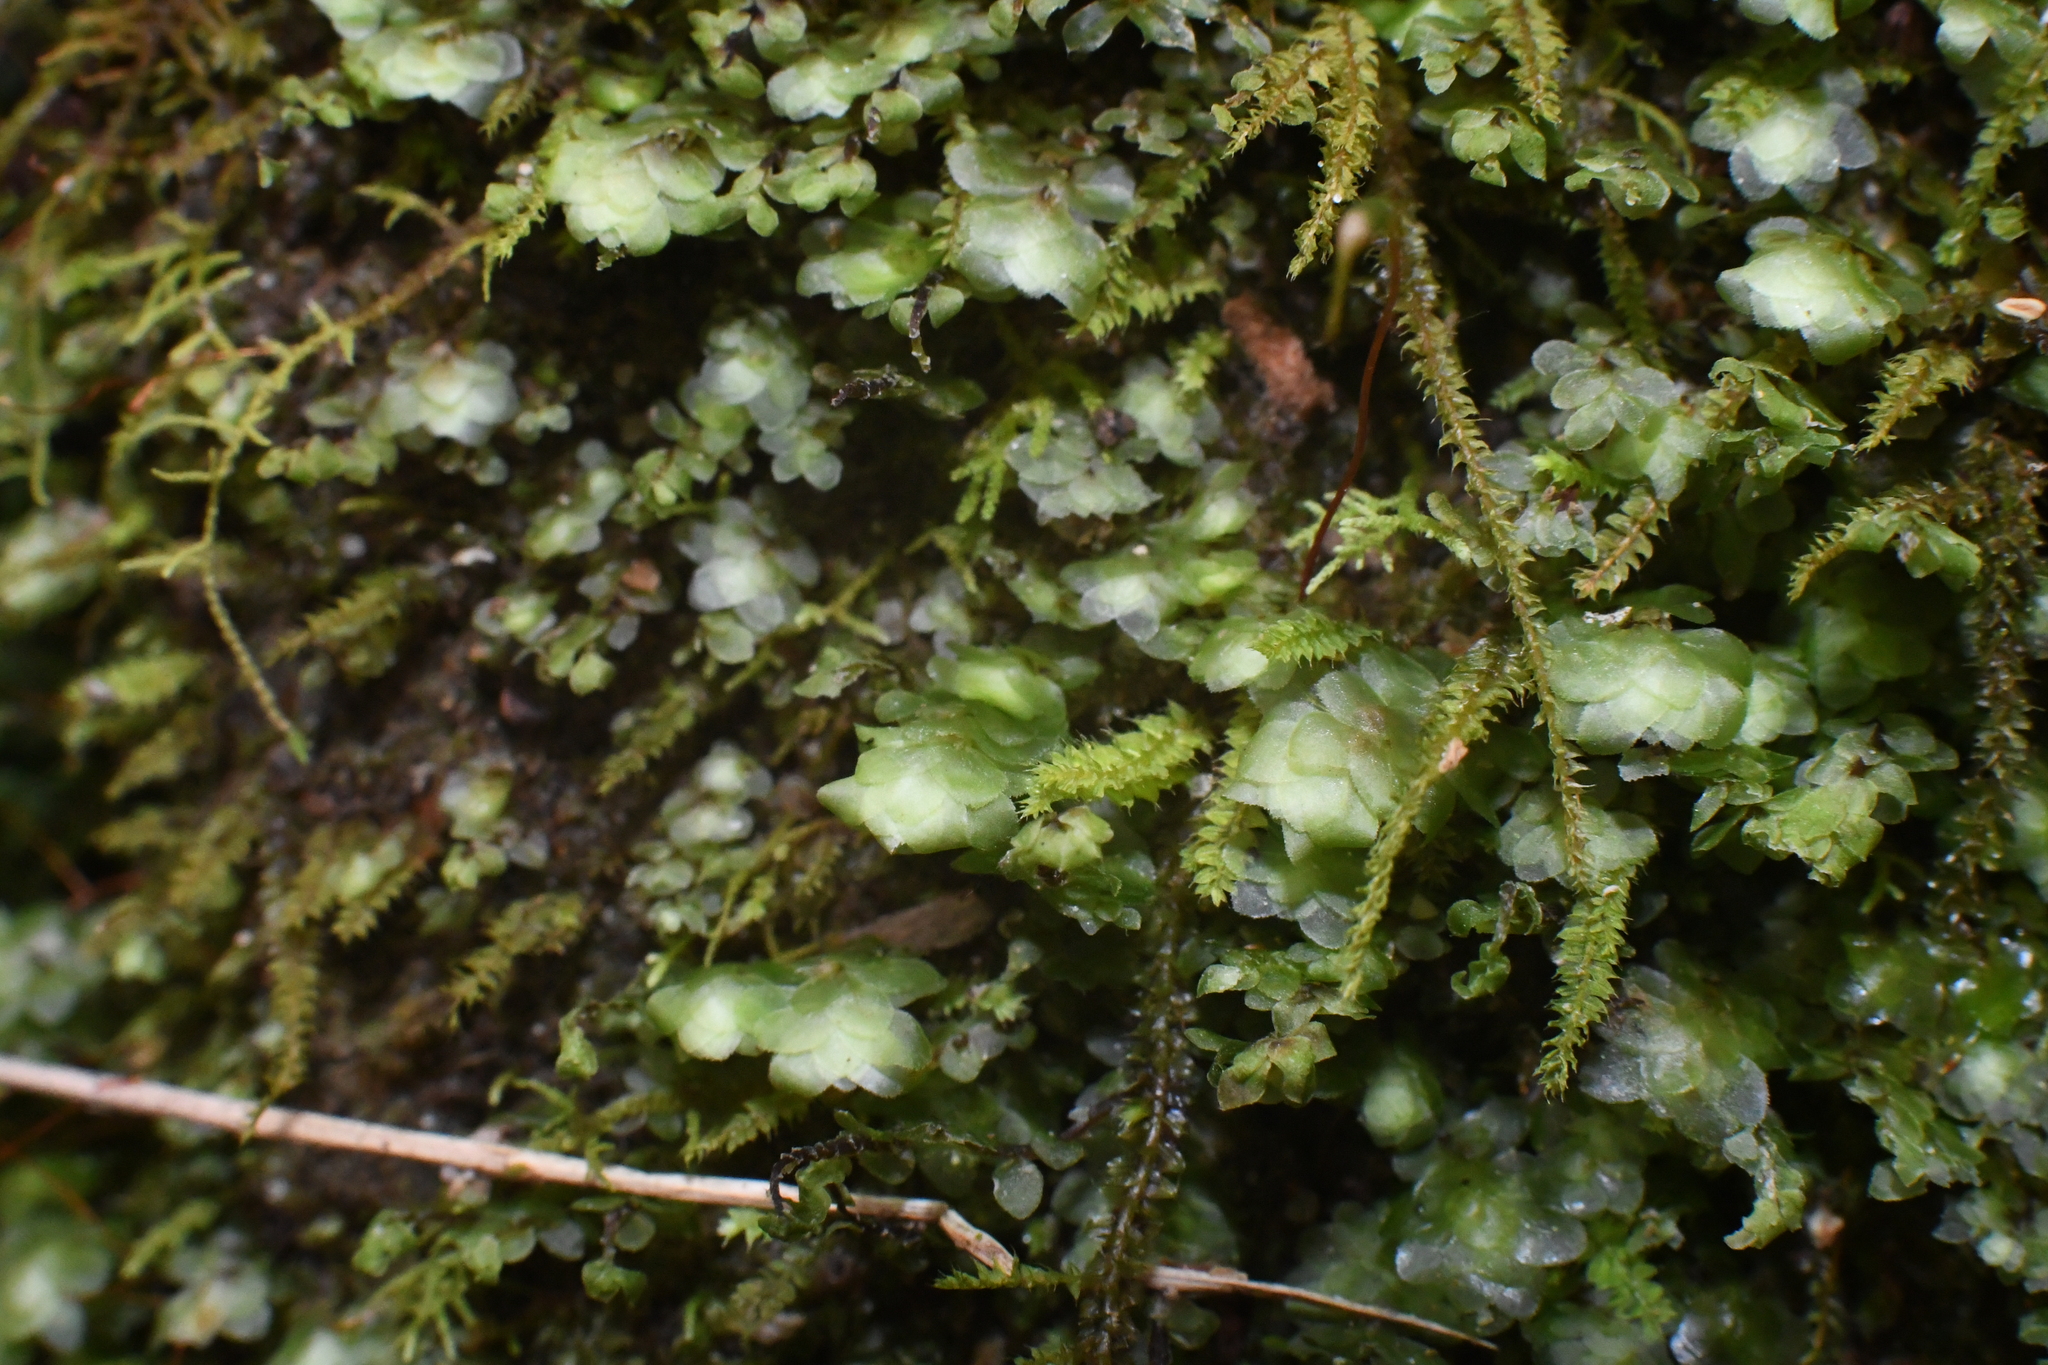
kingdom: Plantae
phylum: Bryophyta
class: Bryopsida
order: Hookeriales
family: Daltoniaceae
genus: Achrophyllum
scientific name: Achrophyllum dentatum
